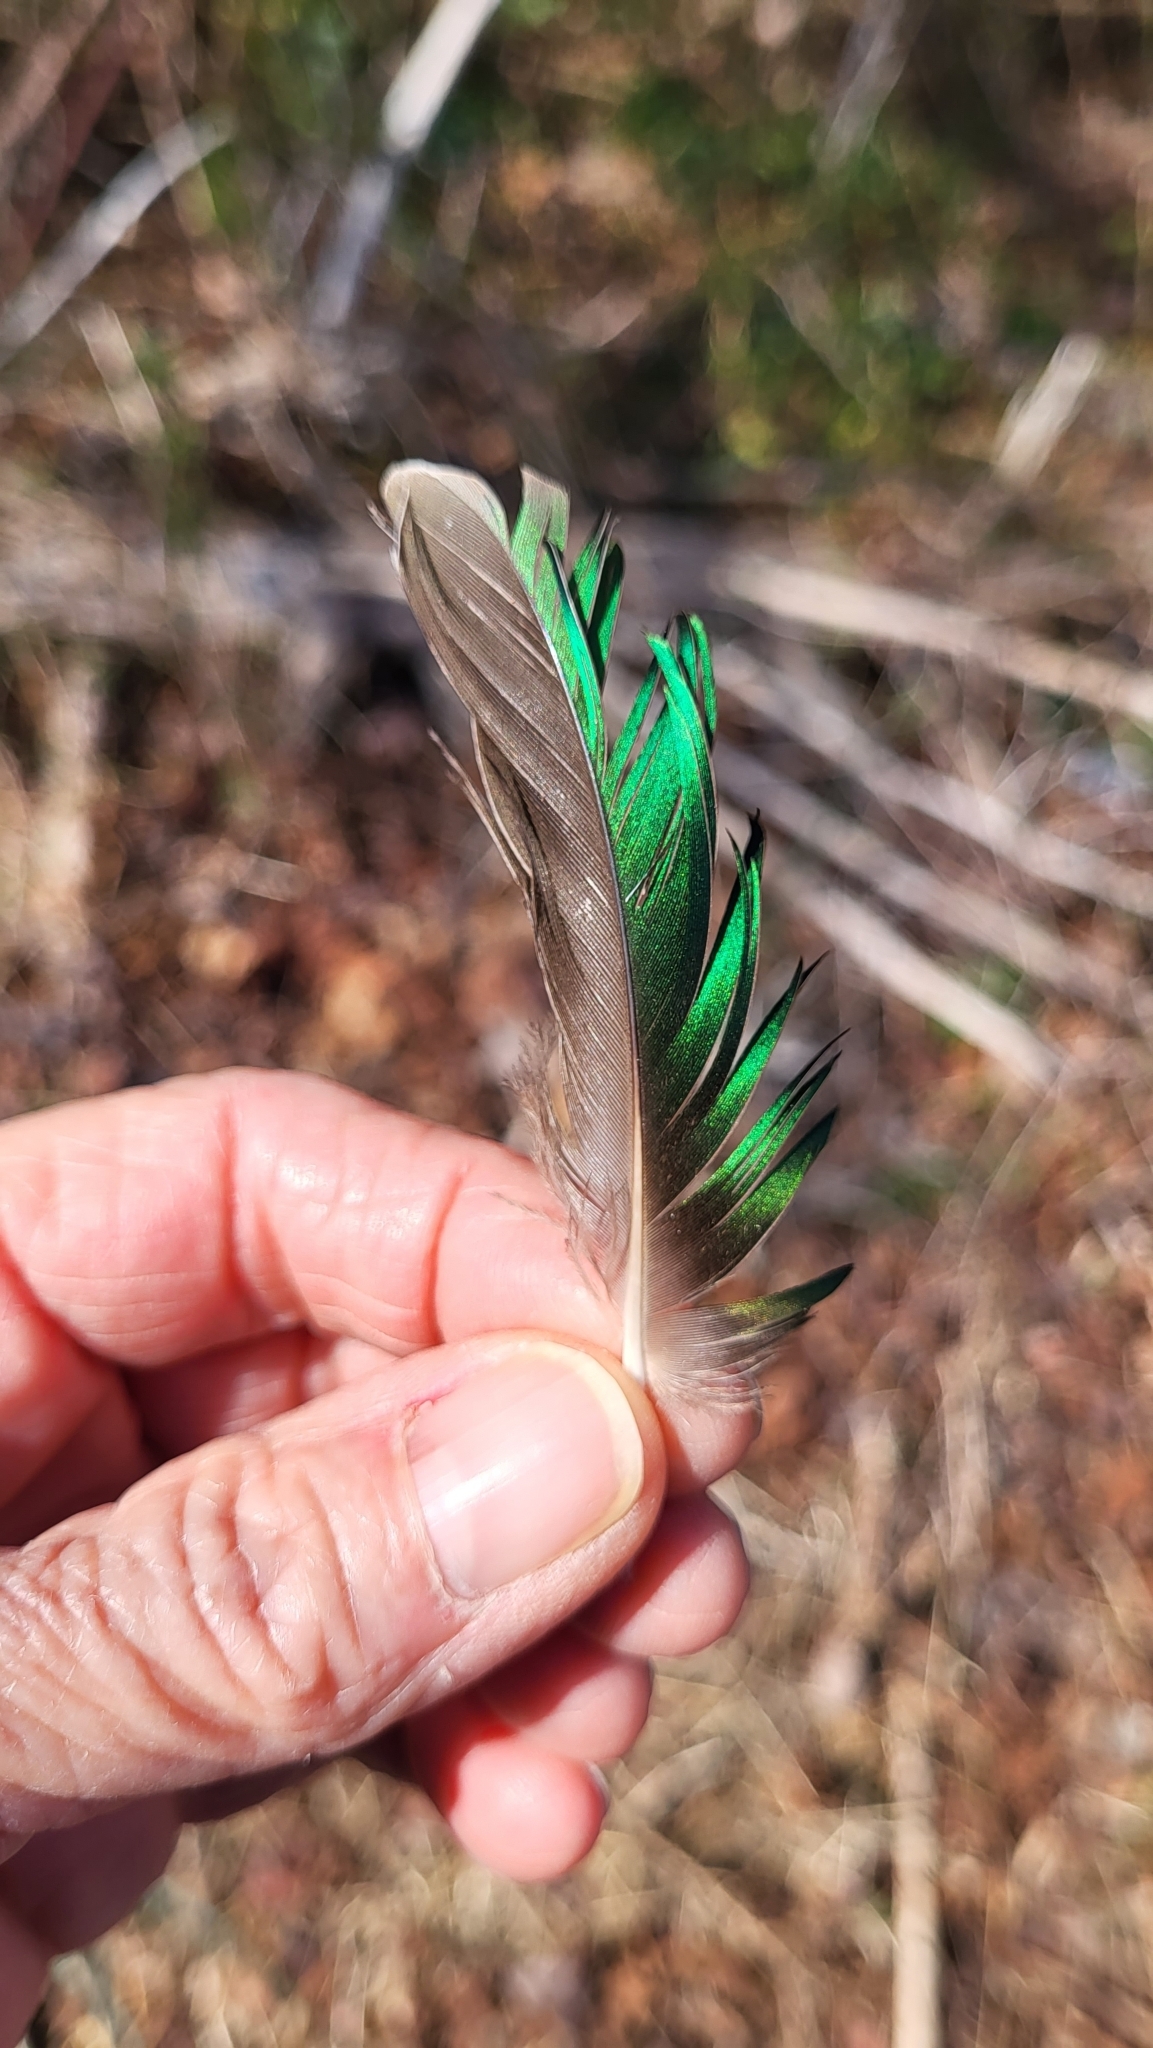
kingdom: Animalia
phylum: Chordata
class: Aves
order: Anseriformes
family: Anatidae
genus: Anas
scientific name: Anas crecca
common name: Eurasian teal
